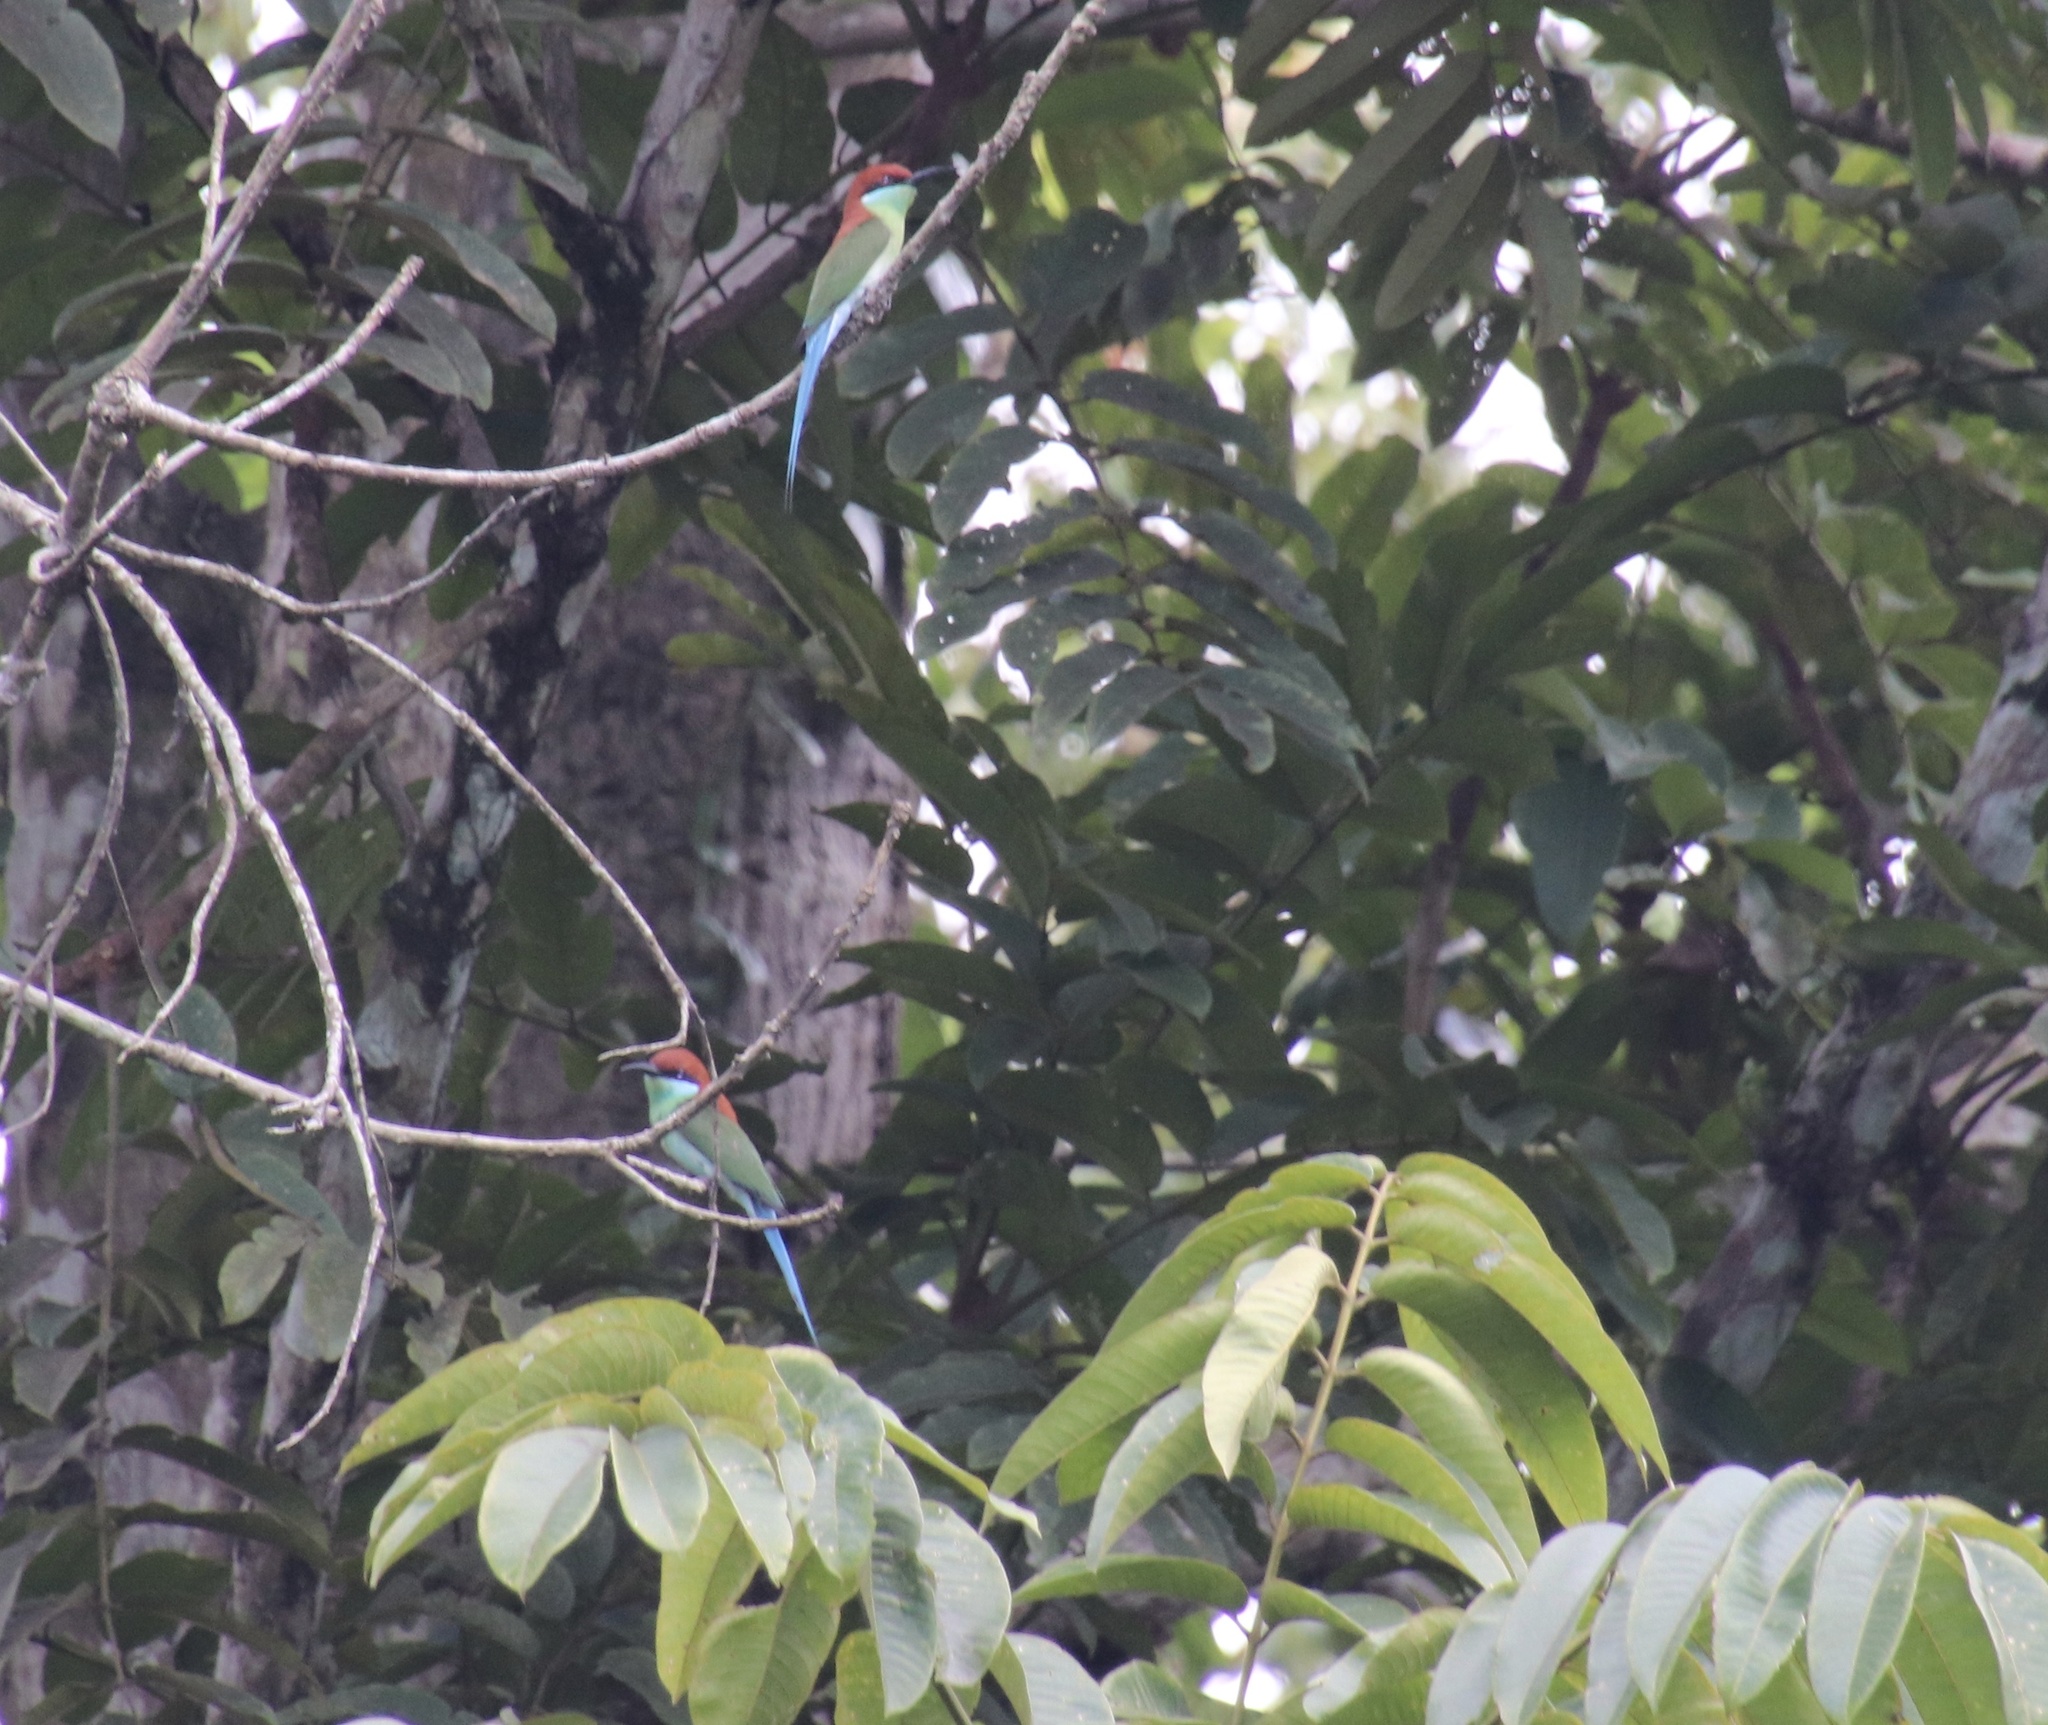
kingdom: Animalia
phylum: Chordata
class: Aves
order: Coraciiformes
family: Meropidae
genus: Merops
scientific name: Merops americanus
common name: Rufous-crowned bee-eater
